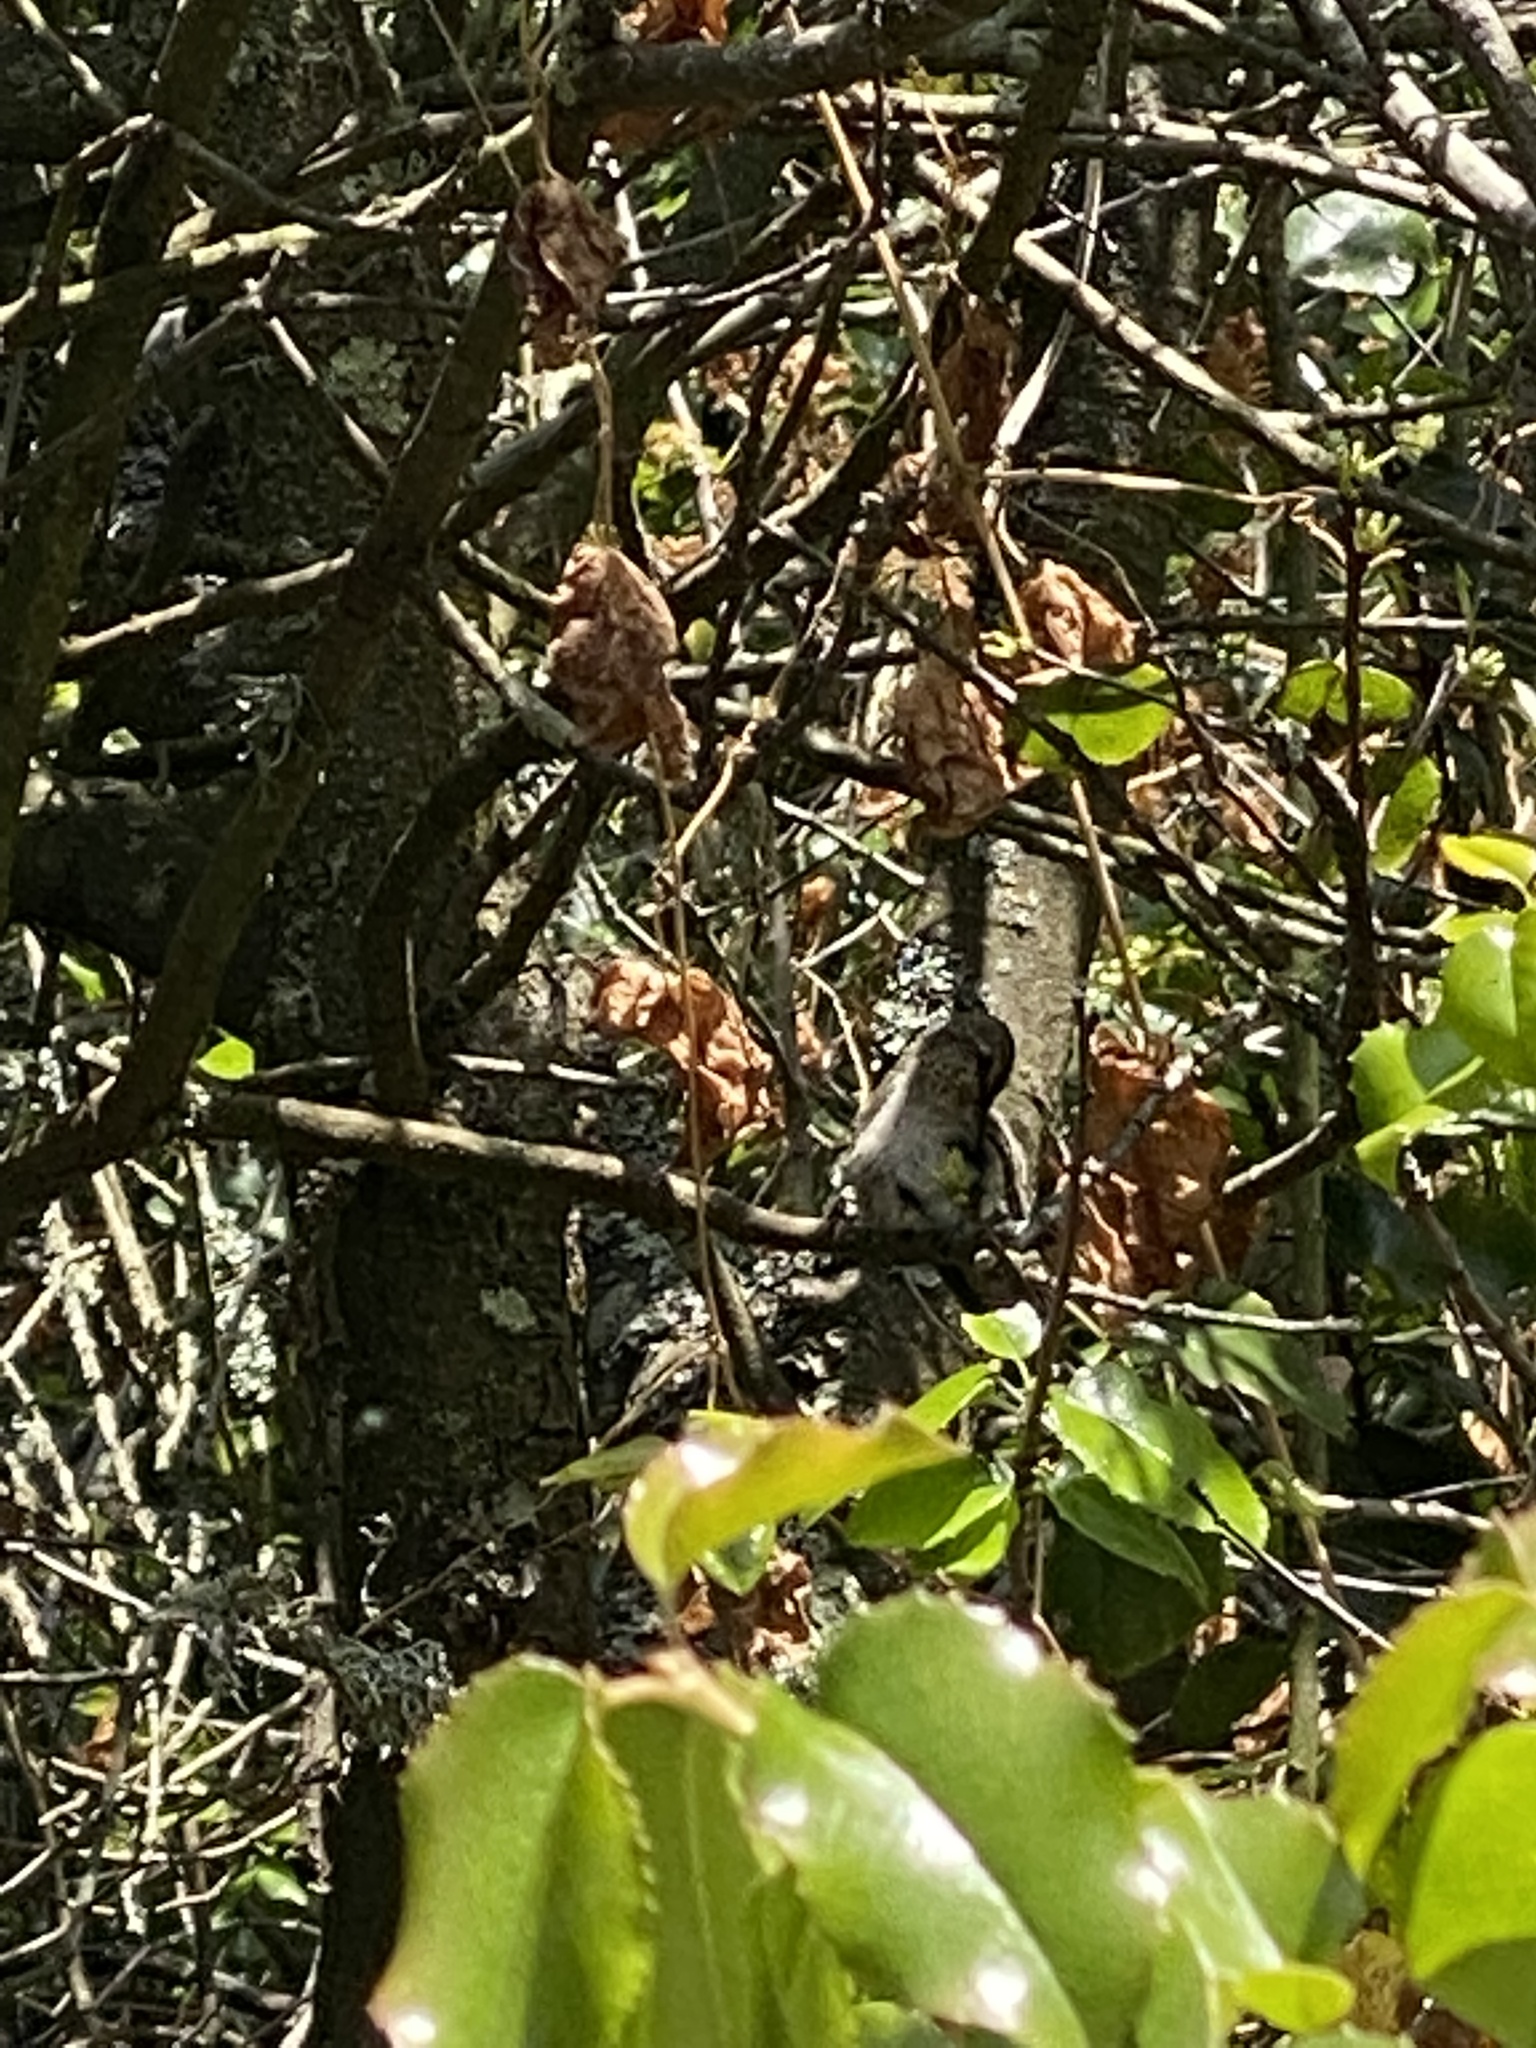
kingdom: Animalia
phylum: Chordata
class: Aves
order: Apodiformes
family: Trochilidae
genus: Calypte
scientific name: Calypte anna
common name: Anna's hummingbird
